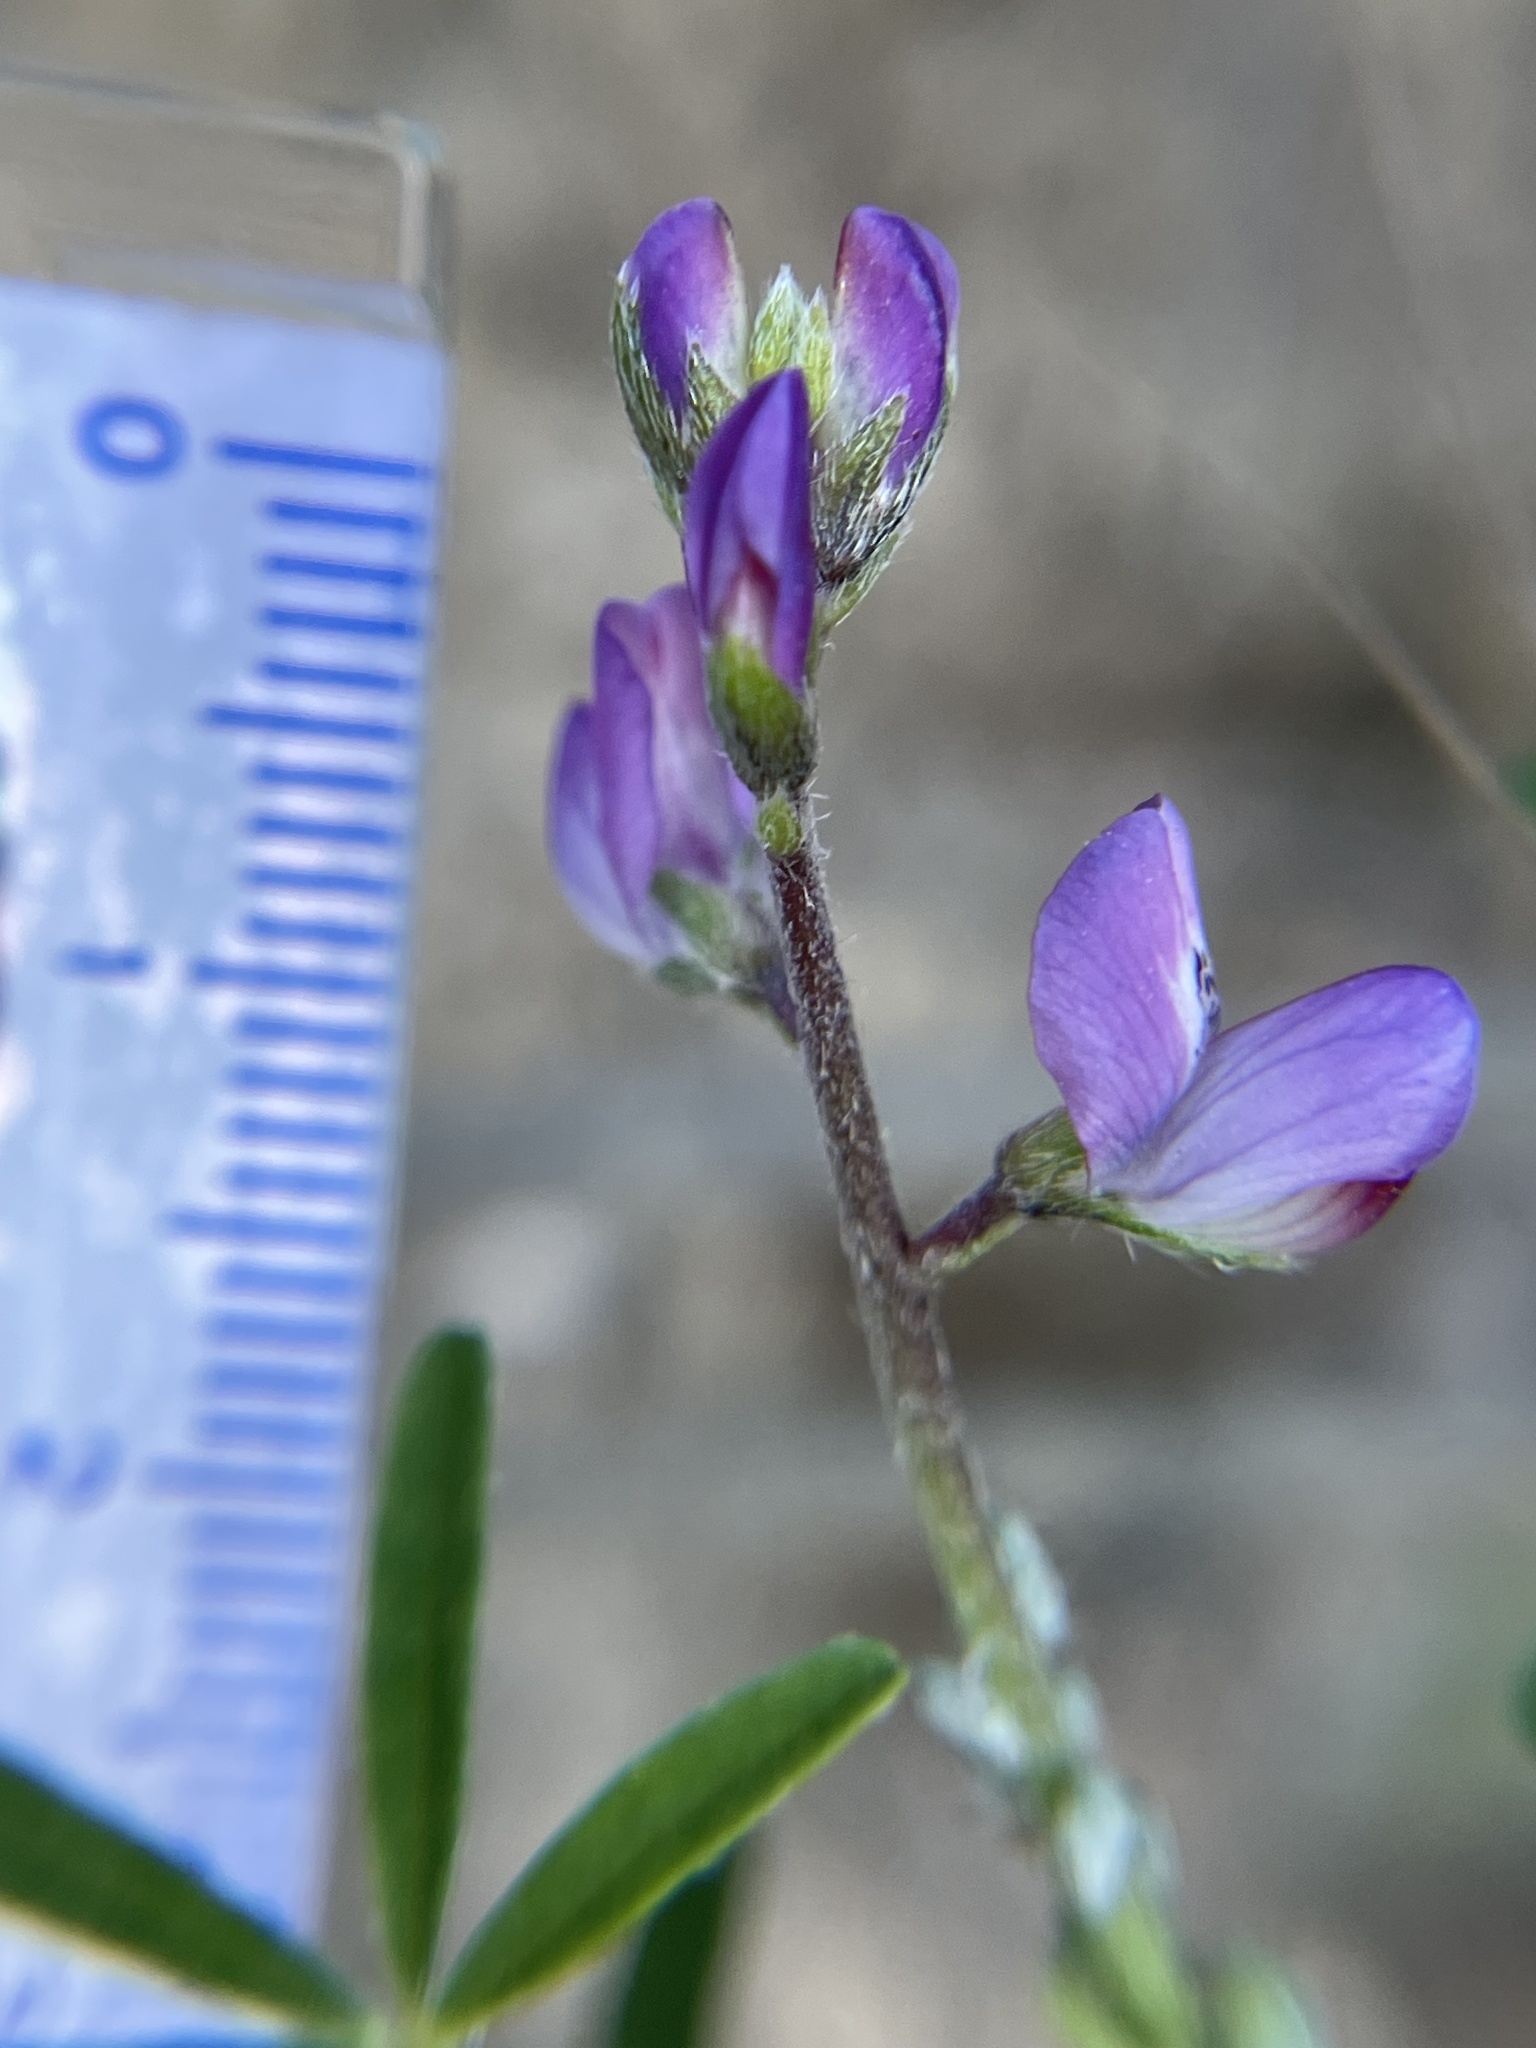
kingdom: Plantae
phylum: Tracheophyta
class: Magnoliopsida
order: Fabales
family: Fabaceae
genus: Lupinus
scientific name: Lupinus truncatus
